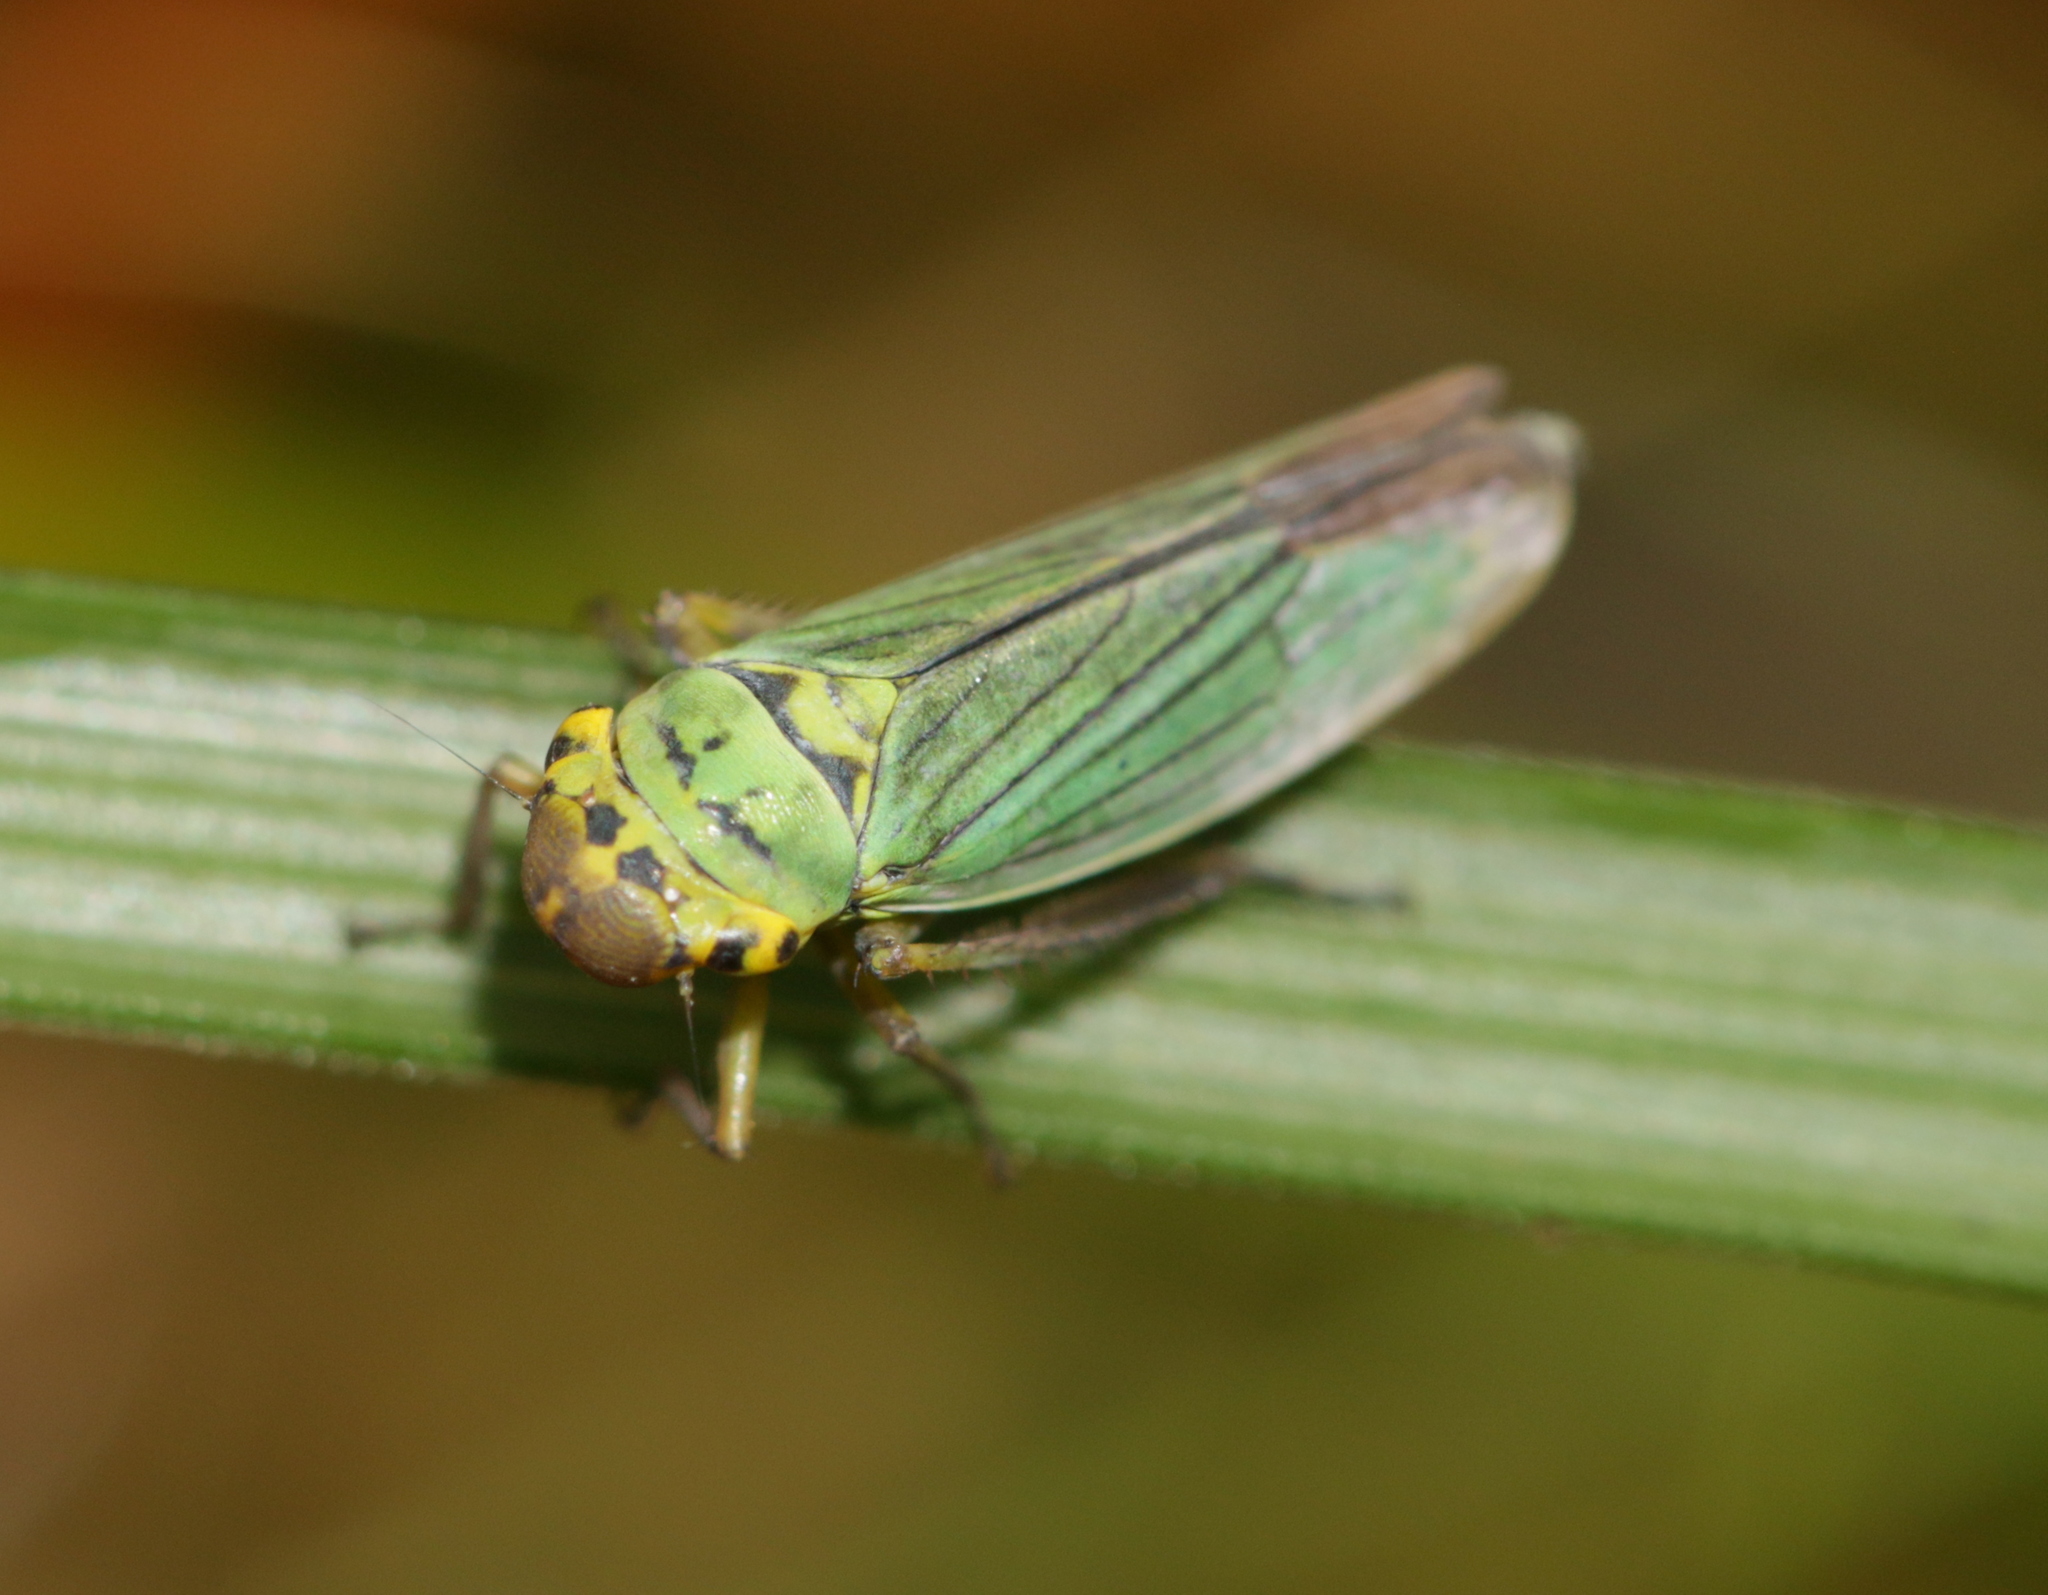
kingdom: Animalia
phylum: Arthropoda
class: Insecta
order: Hemiptera
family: Cicadellidae
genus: Cicadella
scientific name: Cicadella viridis
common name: Leafhopper
